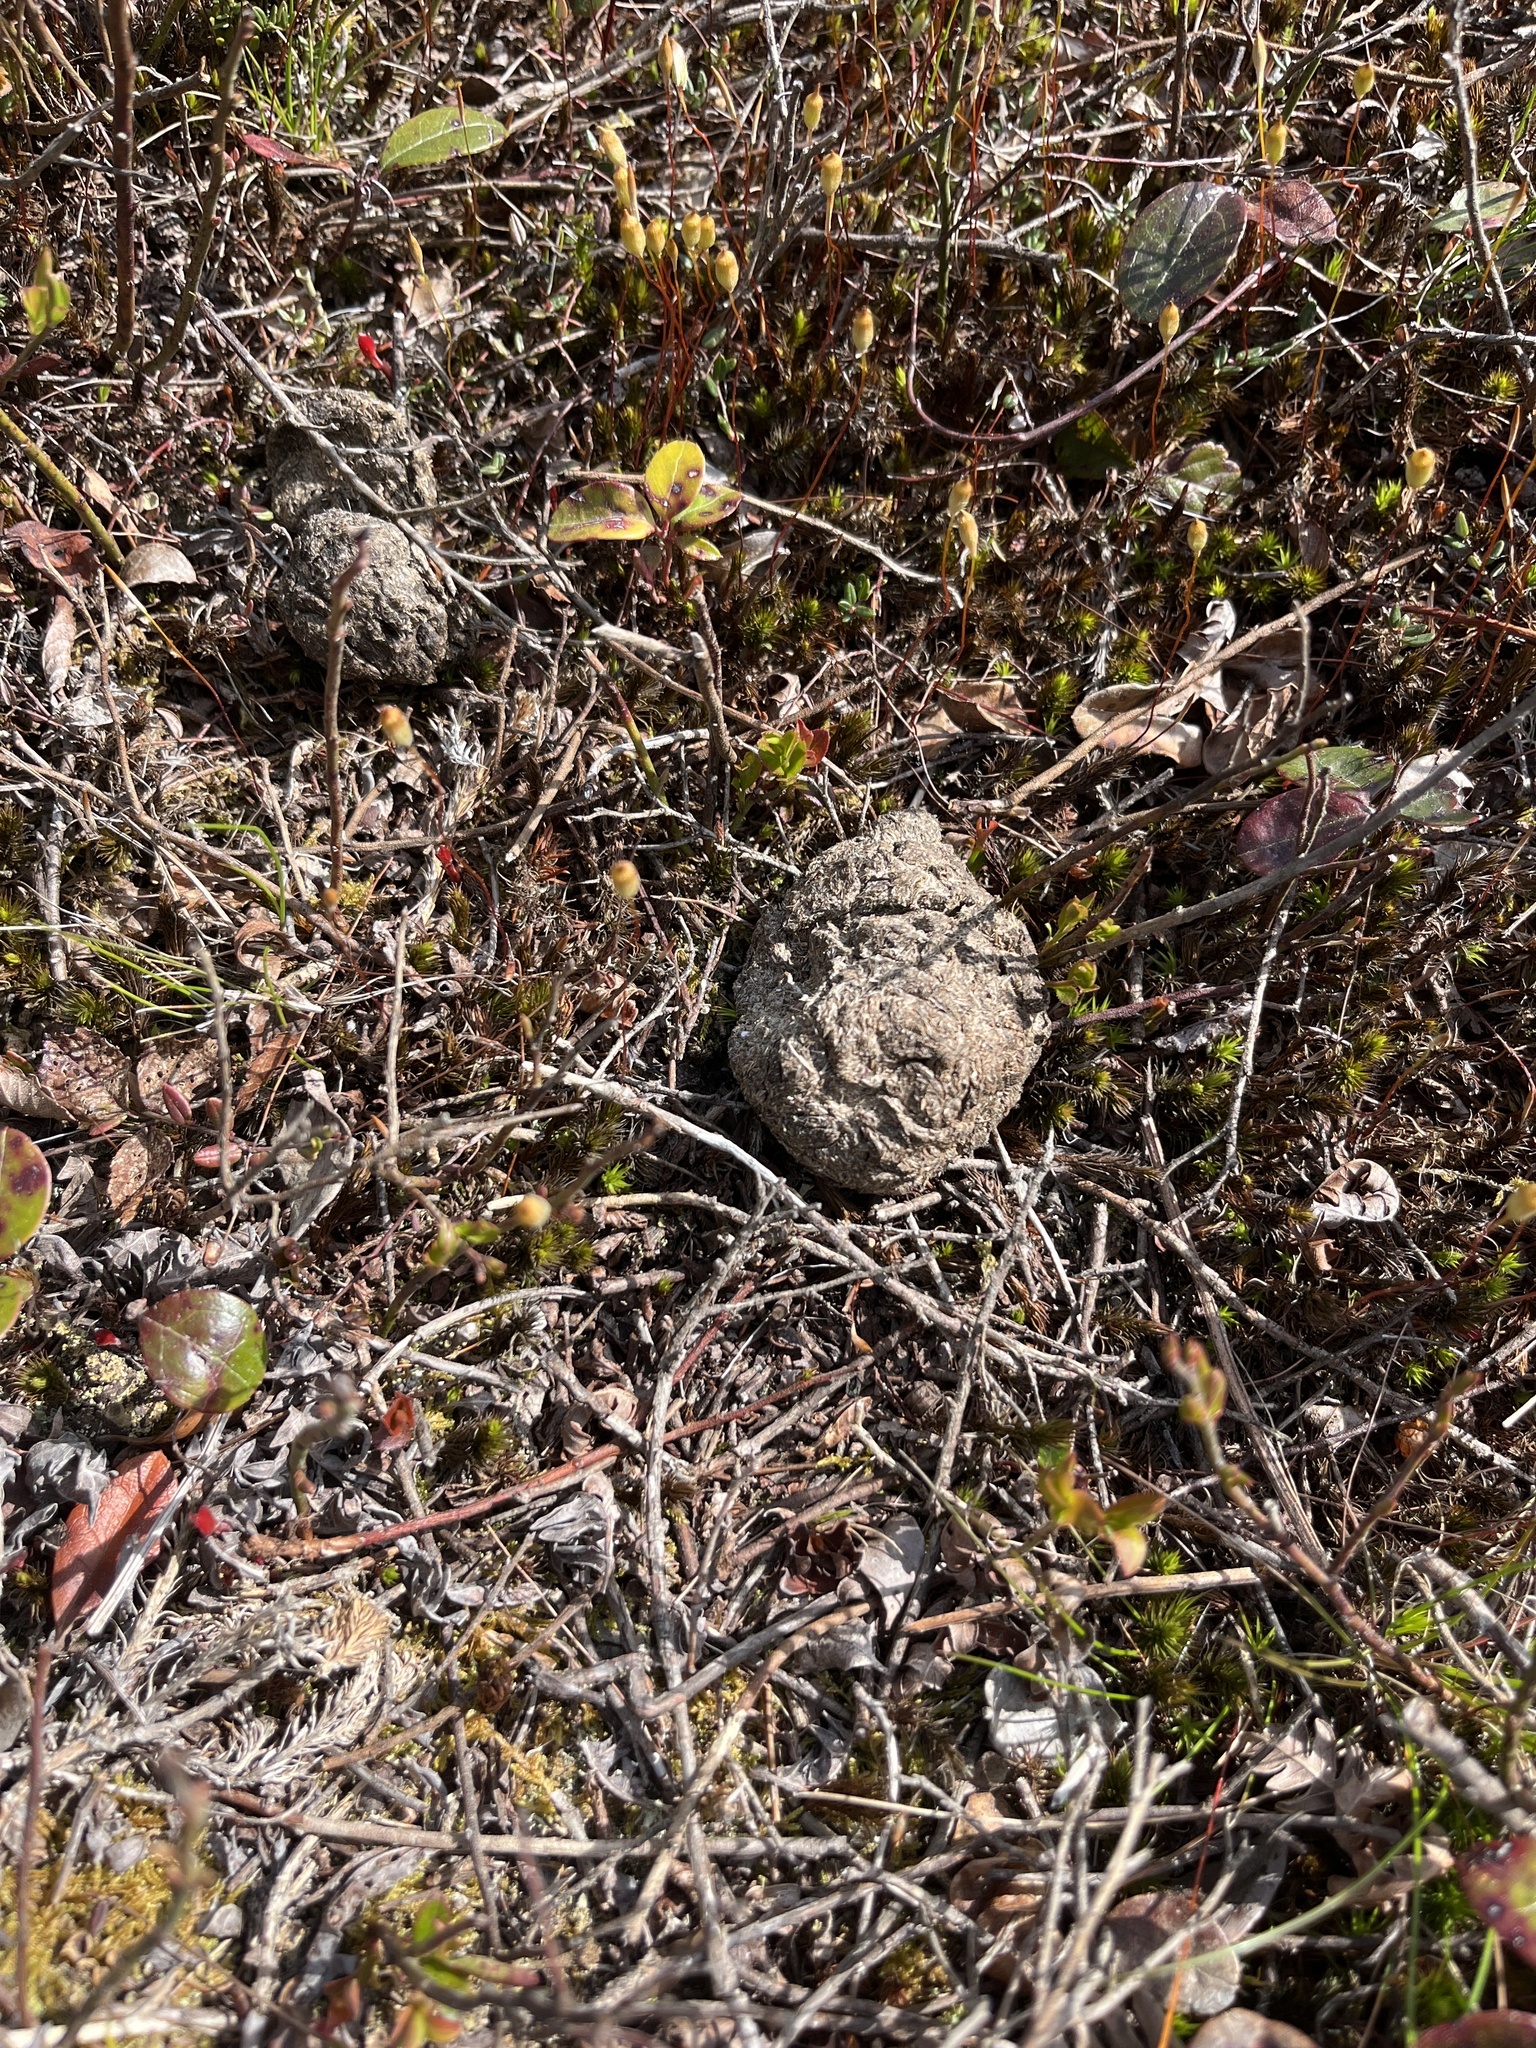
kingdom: Animalia
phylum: Chordata
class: Mammalia
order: Carnivora
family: Ursidae
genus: Ursus
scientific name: Ursus americanus
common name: American black bear
